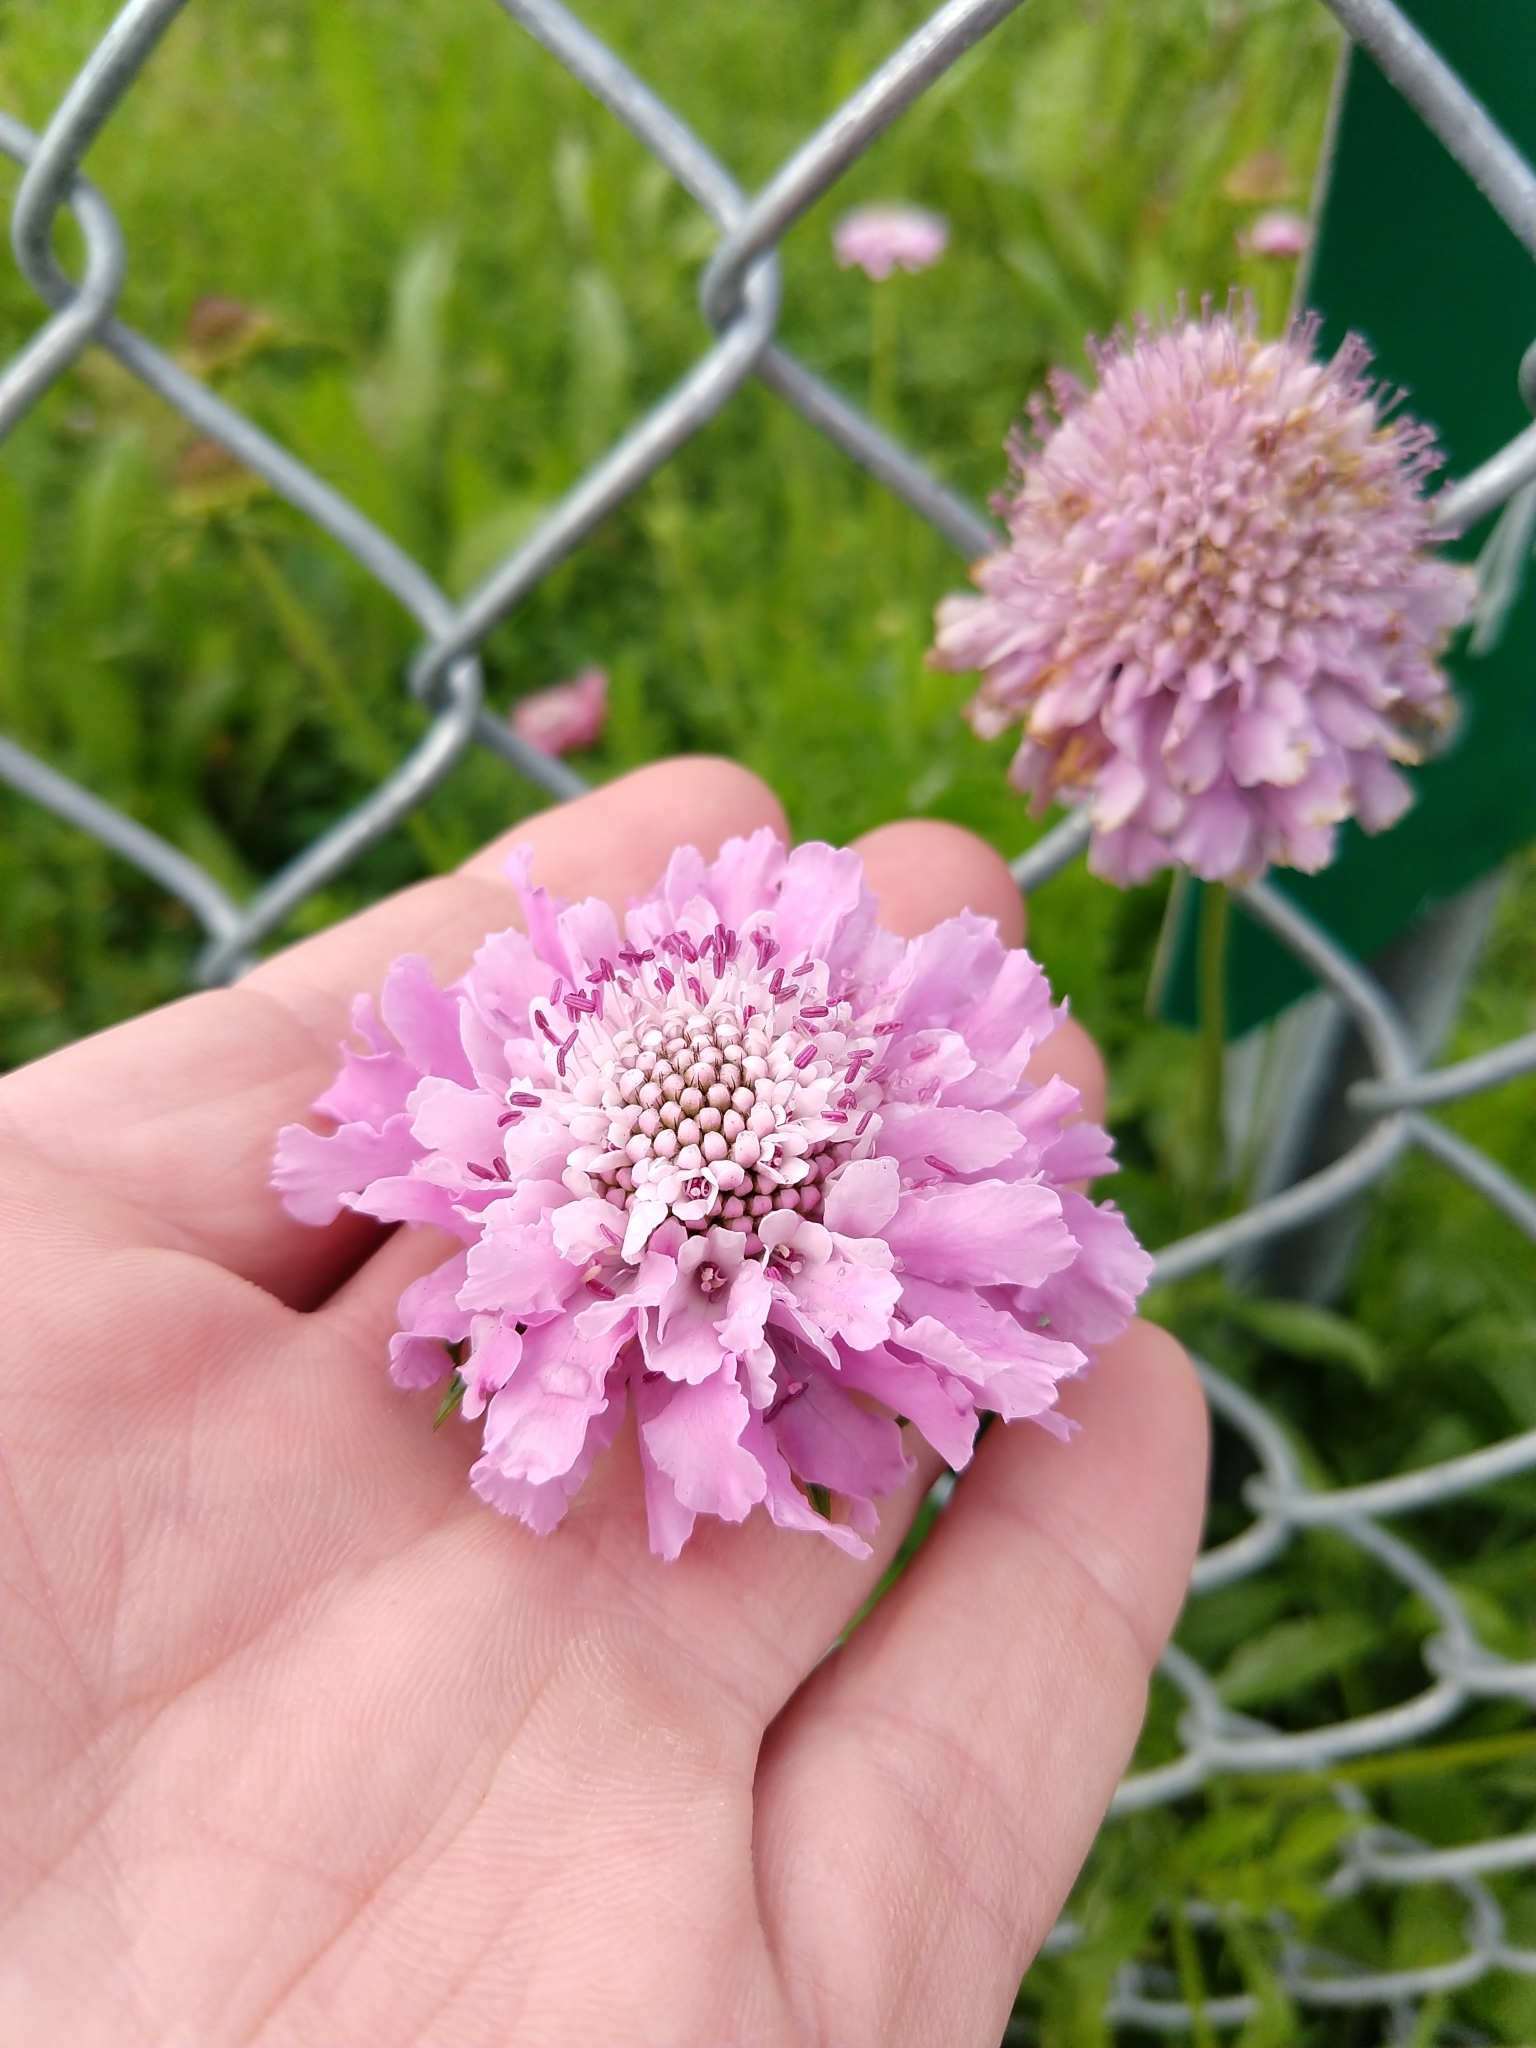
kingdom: Plantae
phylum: Tracheophyta
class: Magnoliopsida
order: Dipsacales
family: Caprifoliaceae
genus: Sixalix
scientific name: Sixalix atropurpurea
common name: Sweet scabious
